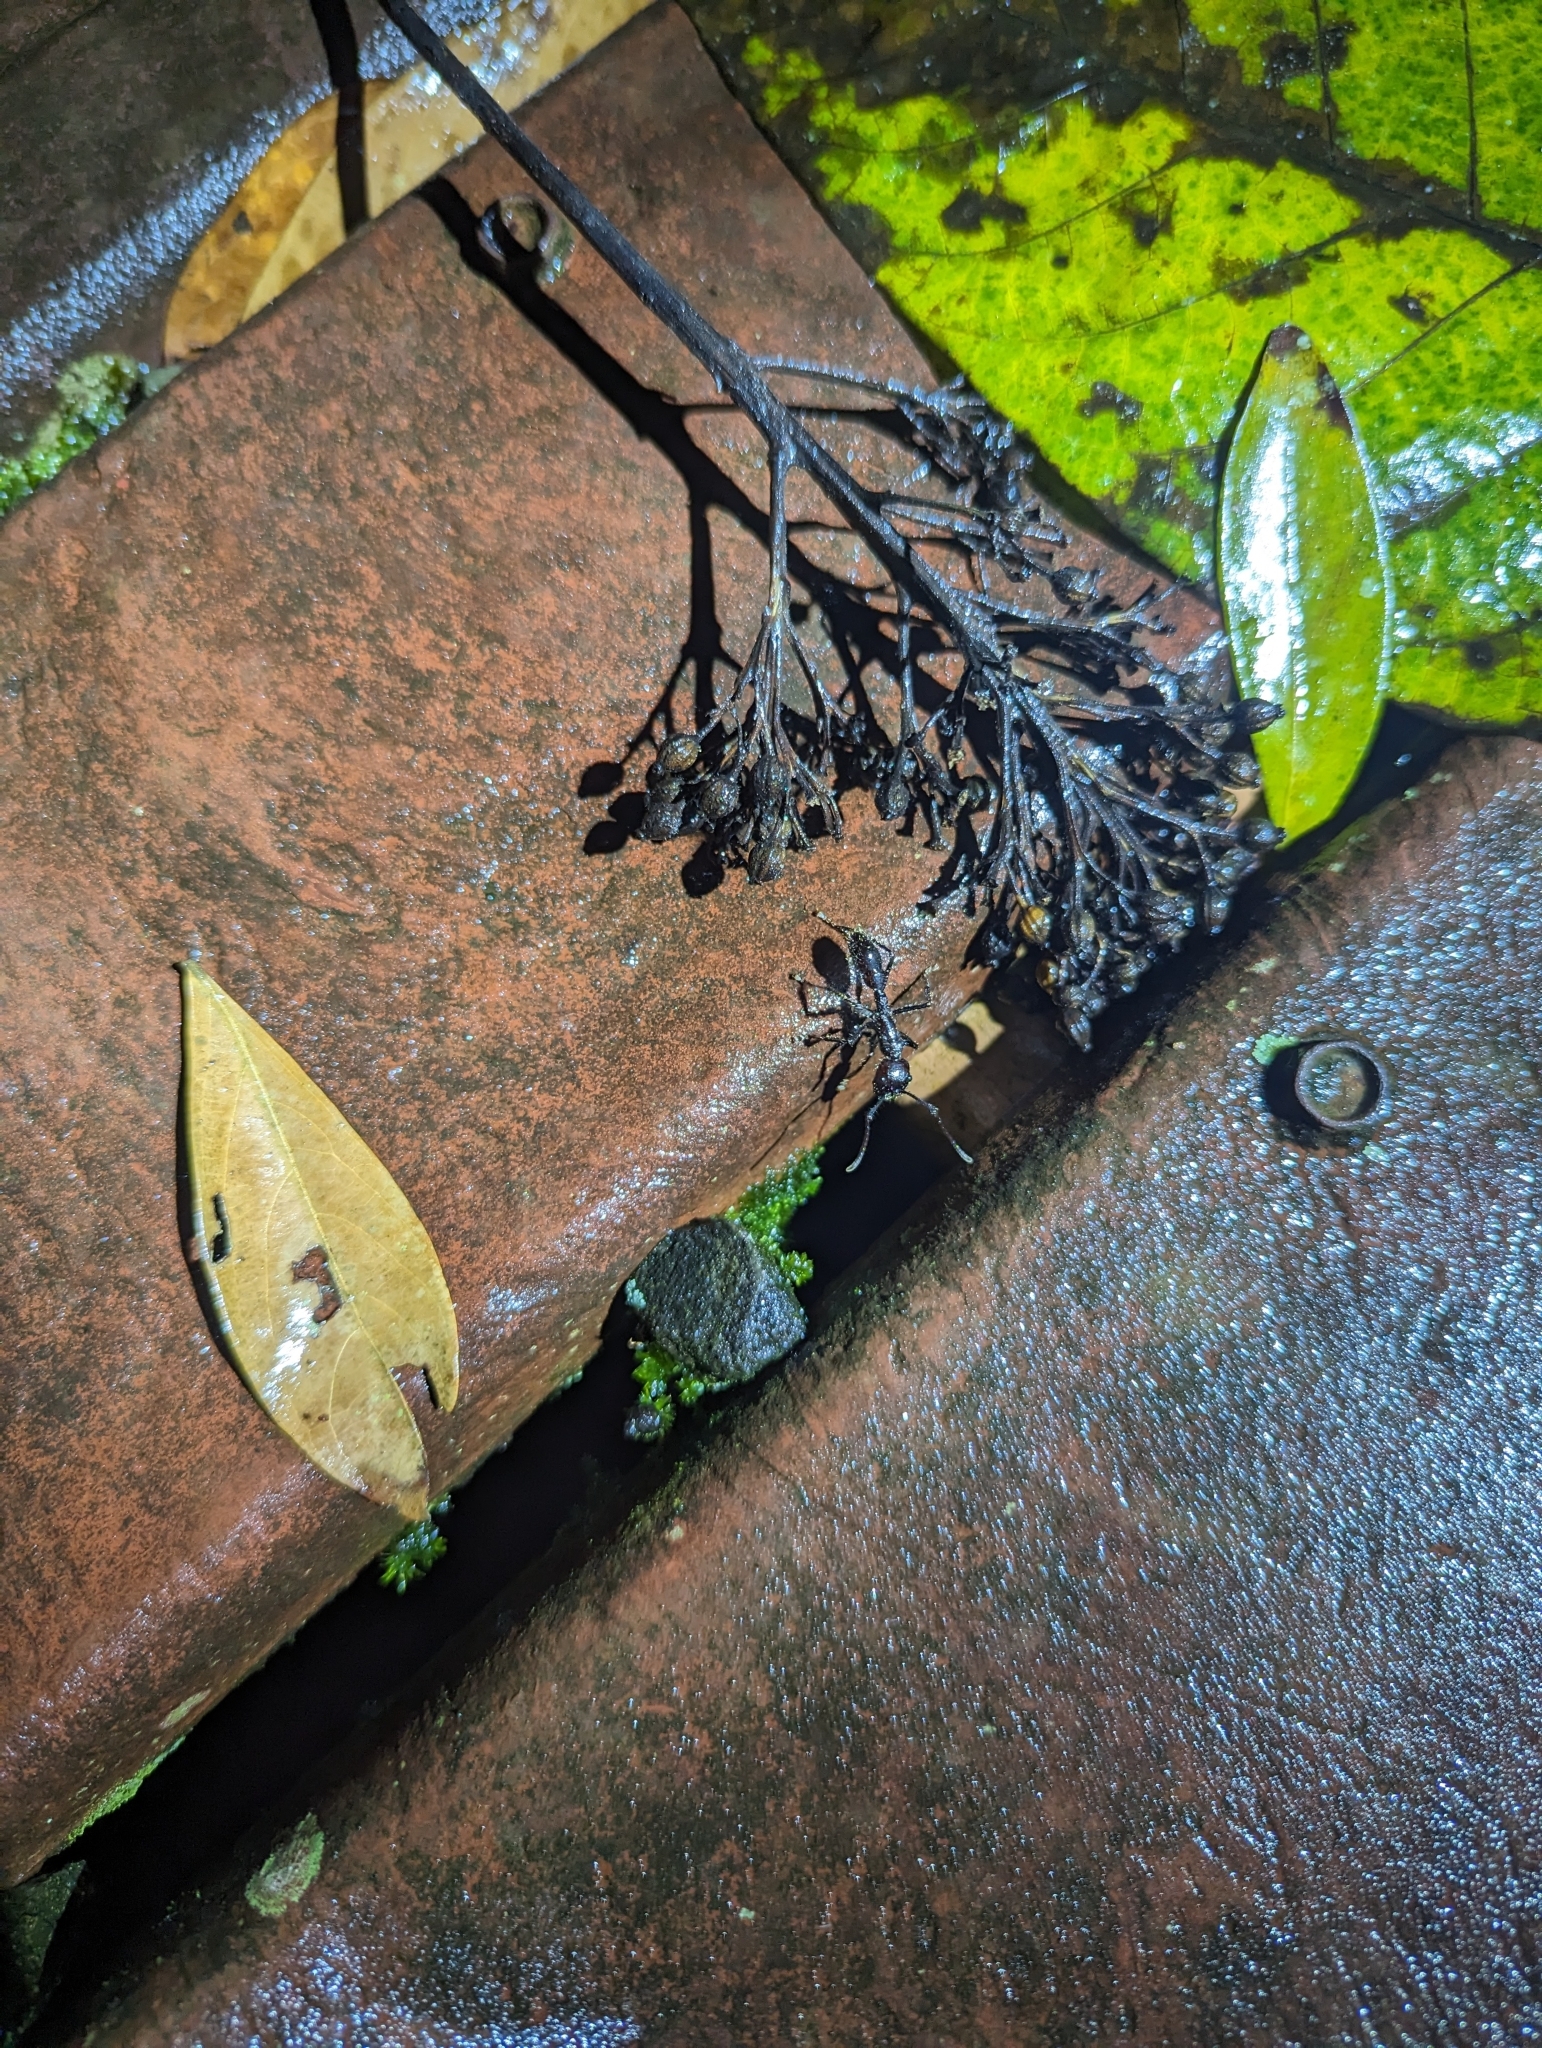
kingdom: Animalia
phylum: Arthropoda
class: Insecta
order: Hymenoptera
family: Formicidae
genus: Paraponera
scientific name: Paraponera clavata
